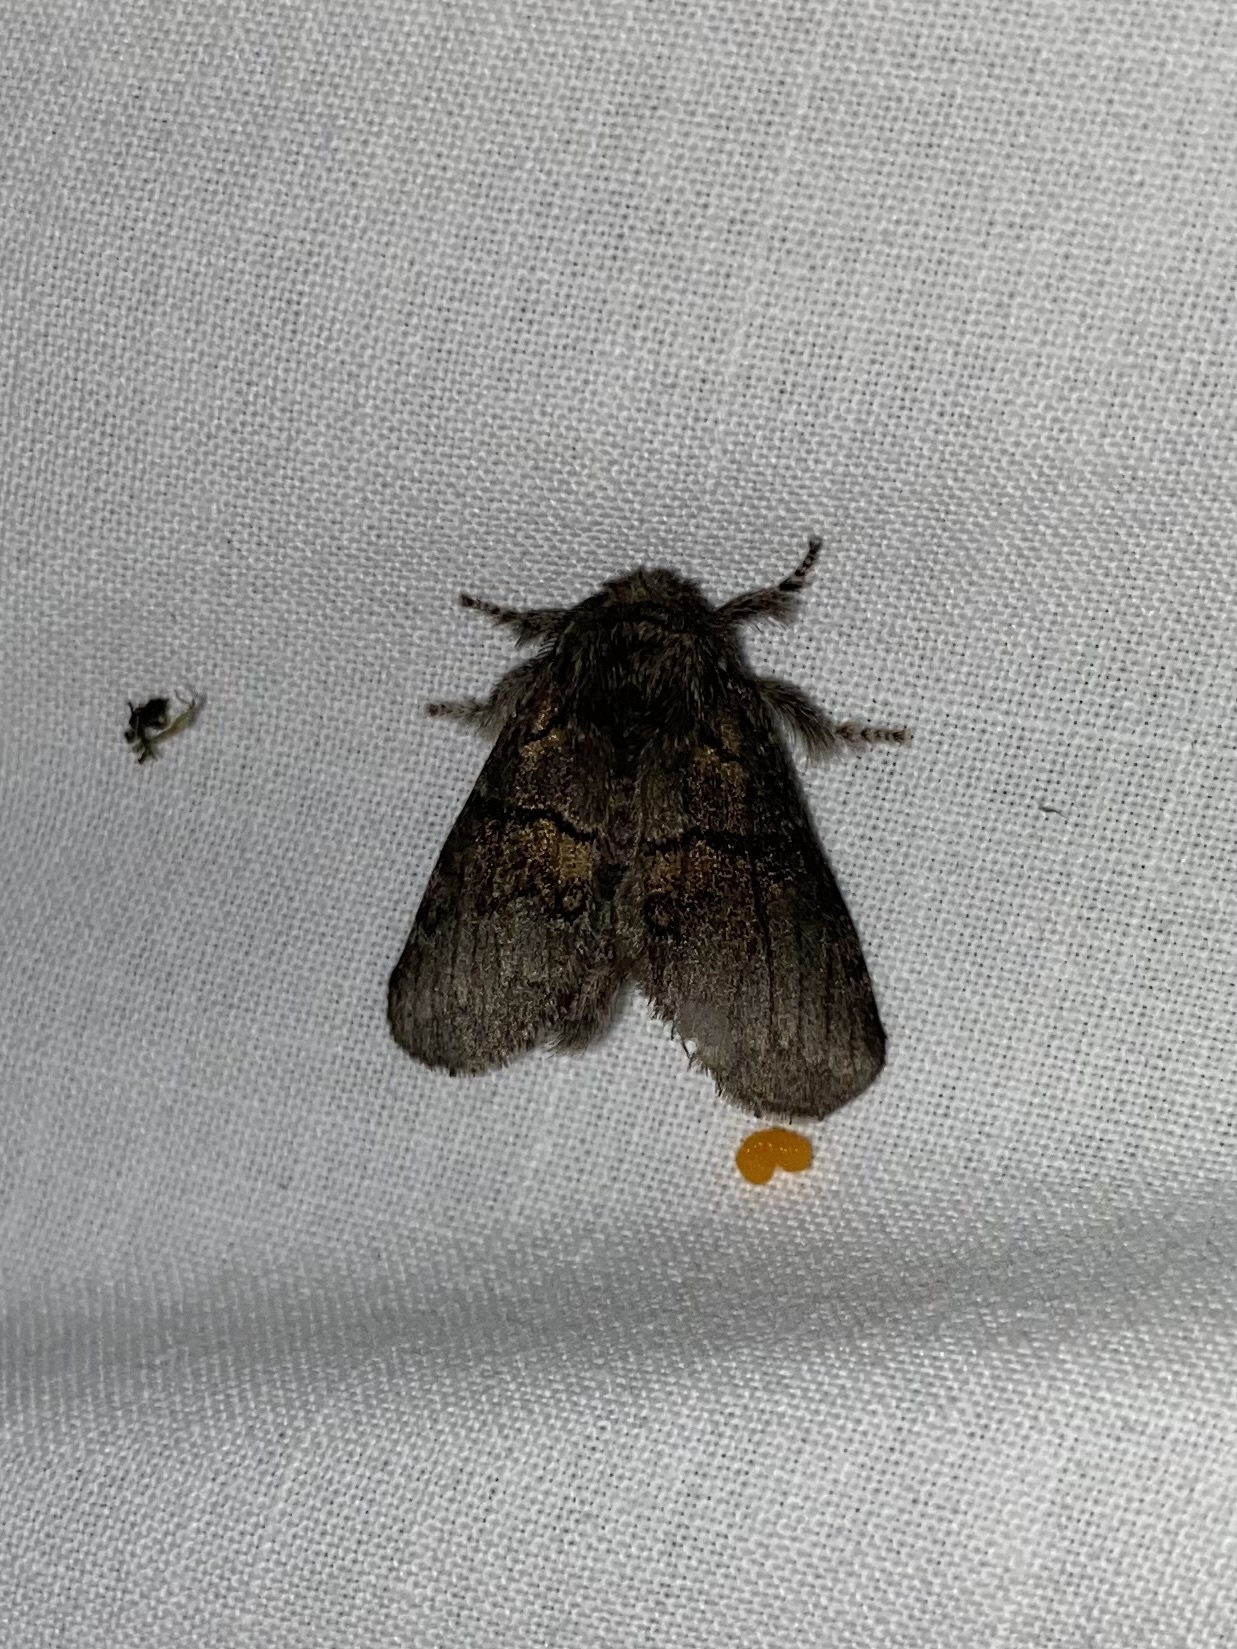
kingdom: Animalia
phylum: Arthropoda
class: Insecta
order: Lepidoptera
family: Notodontidae
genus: Gluphisia
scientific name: Gluphisia septentrionis
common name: Common gluphisia
